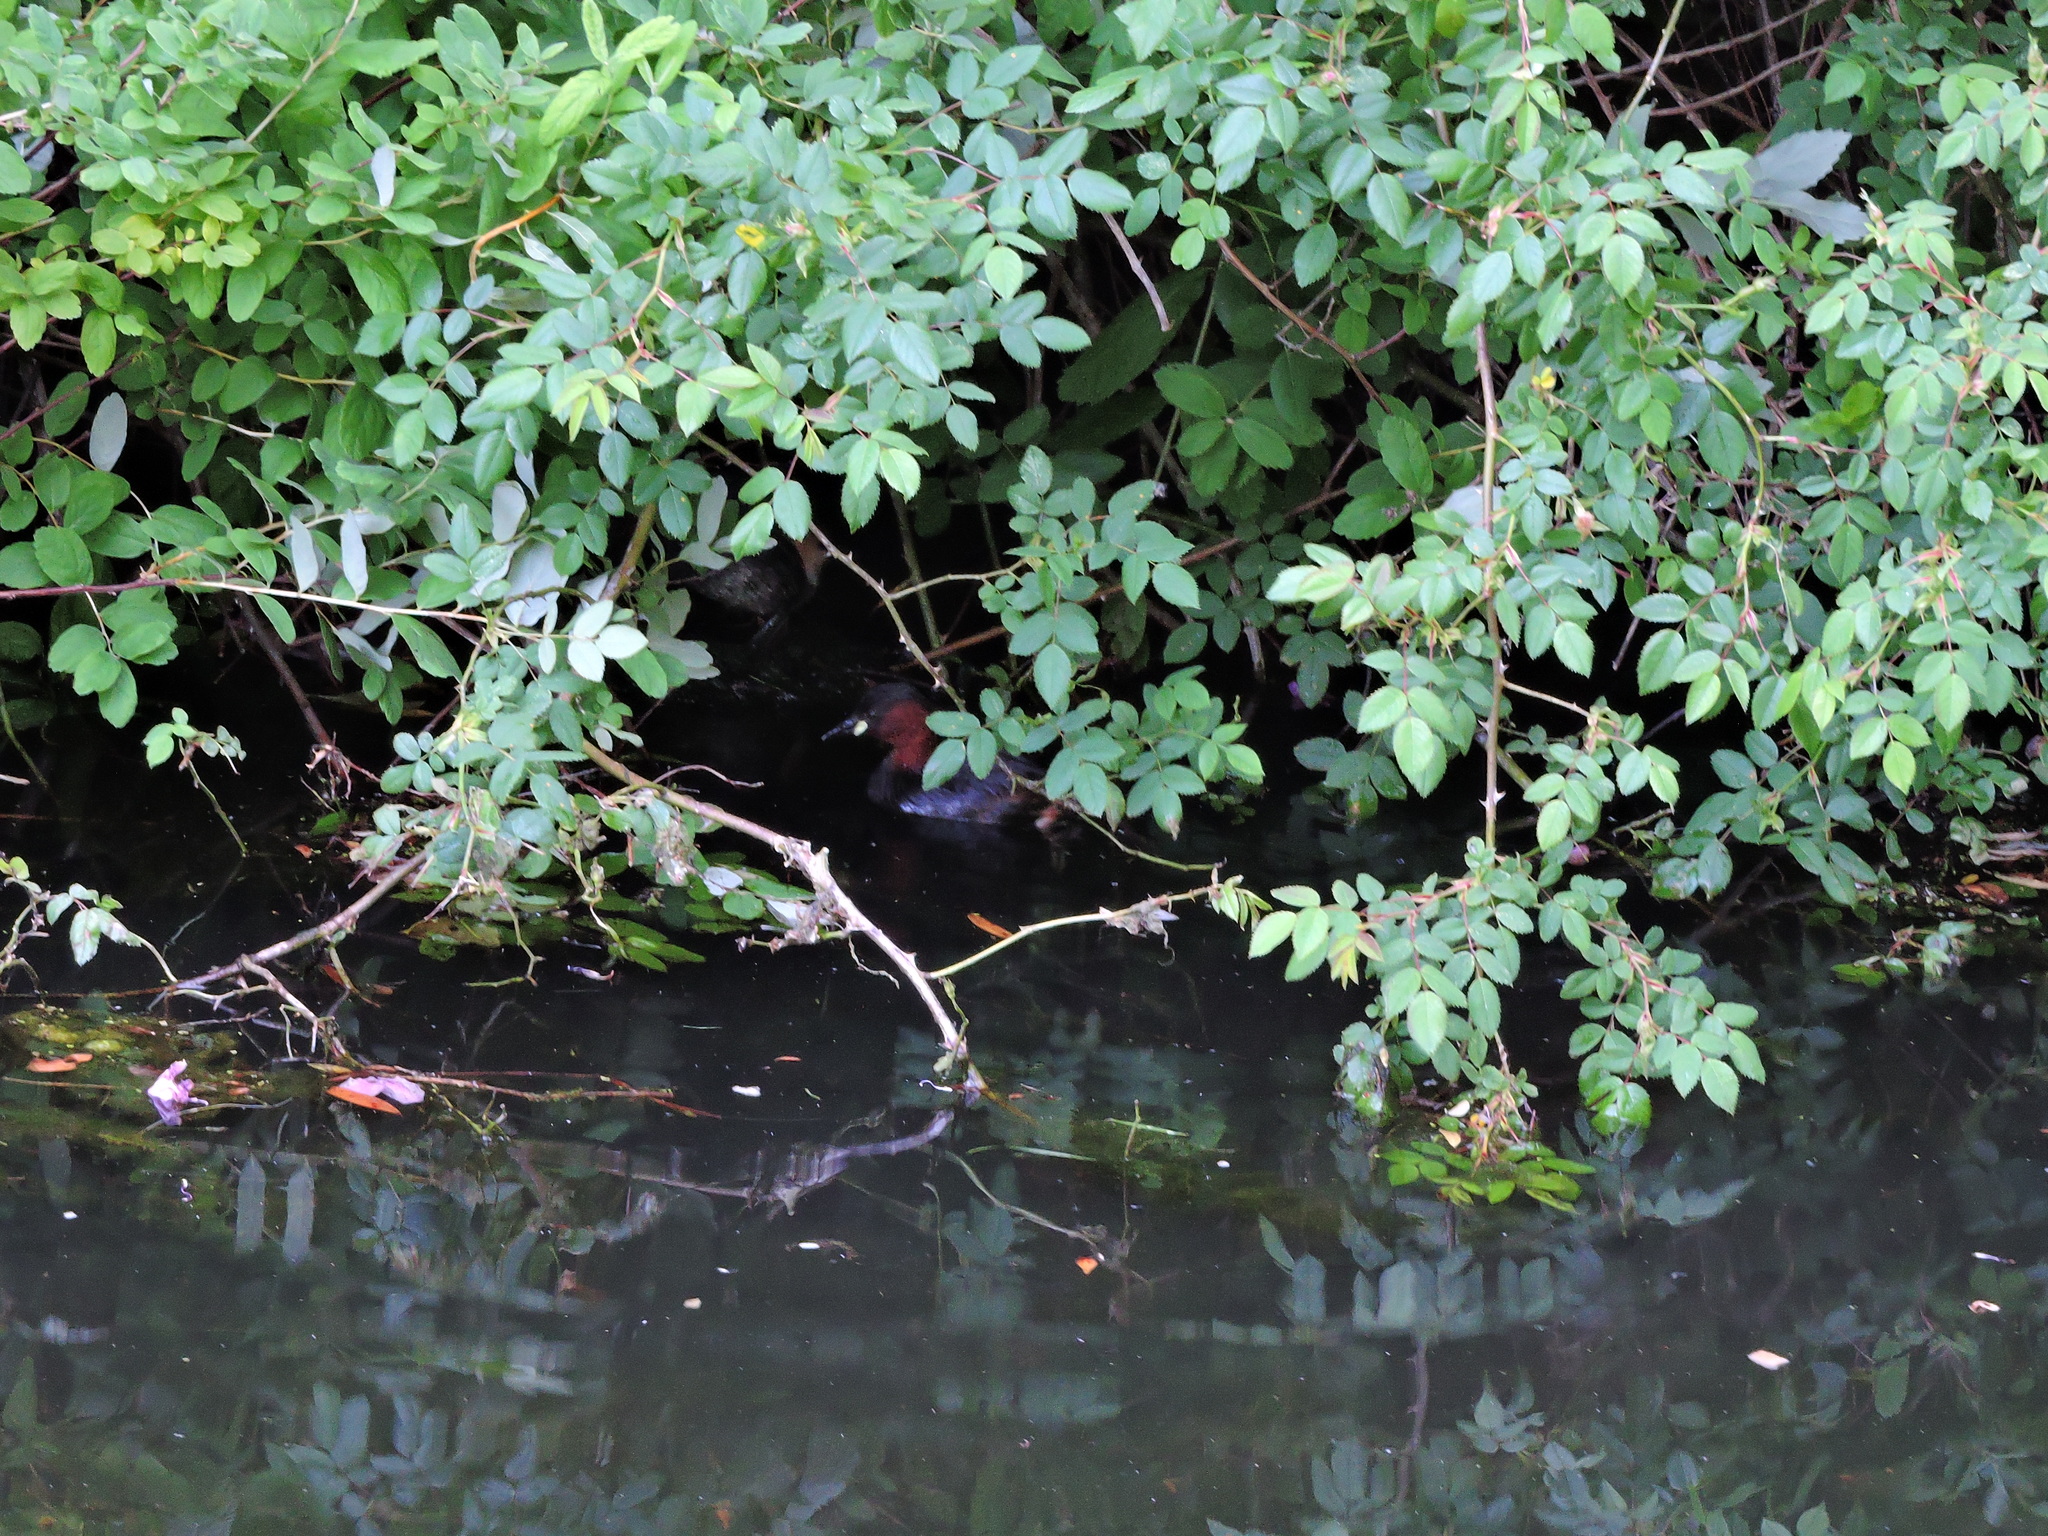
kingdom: Animalia
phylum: Chordata
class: Aves
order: Podicipediformes
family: Podicipedidae
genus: Tachybaptus
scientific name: Tachybaptus ruficollis
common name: Little grebe
